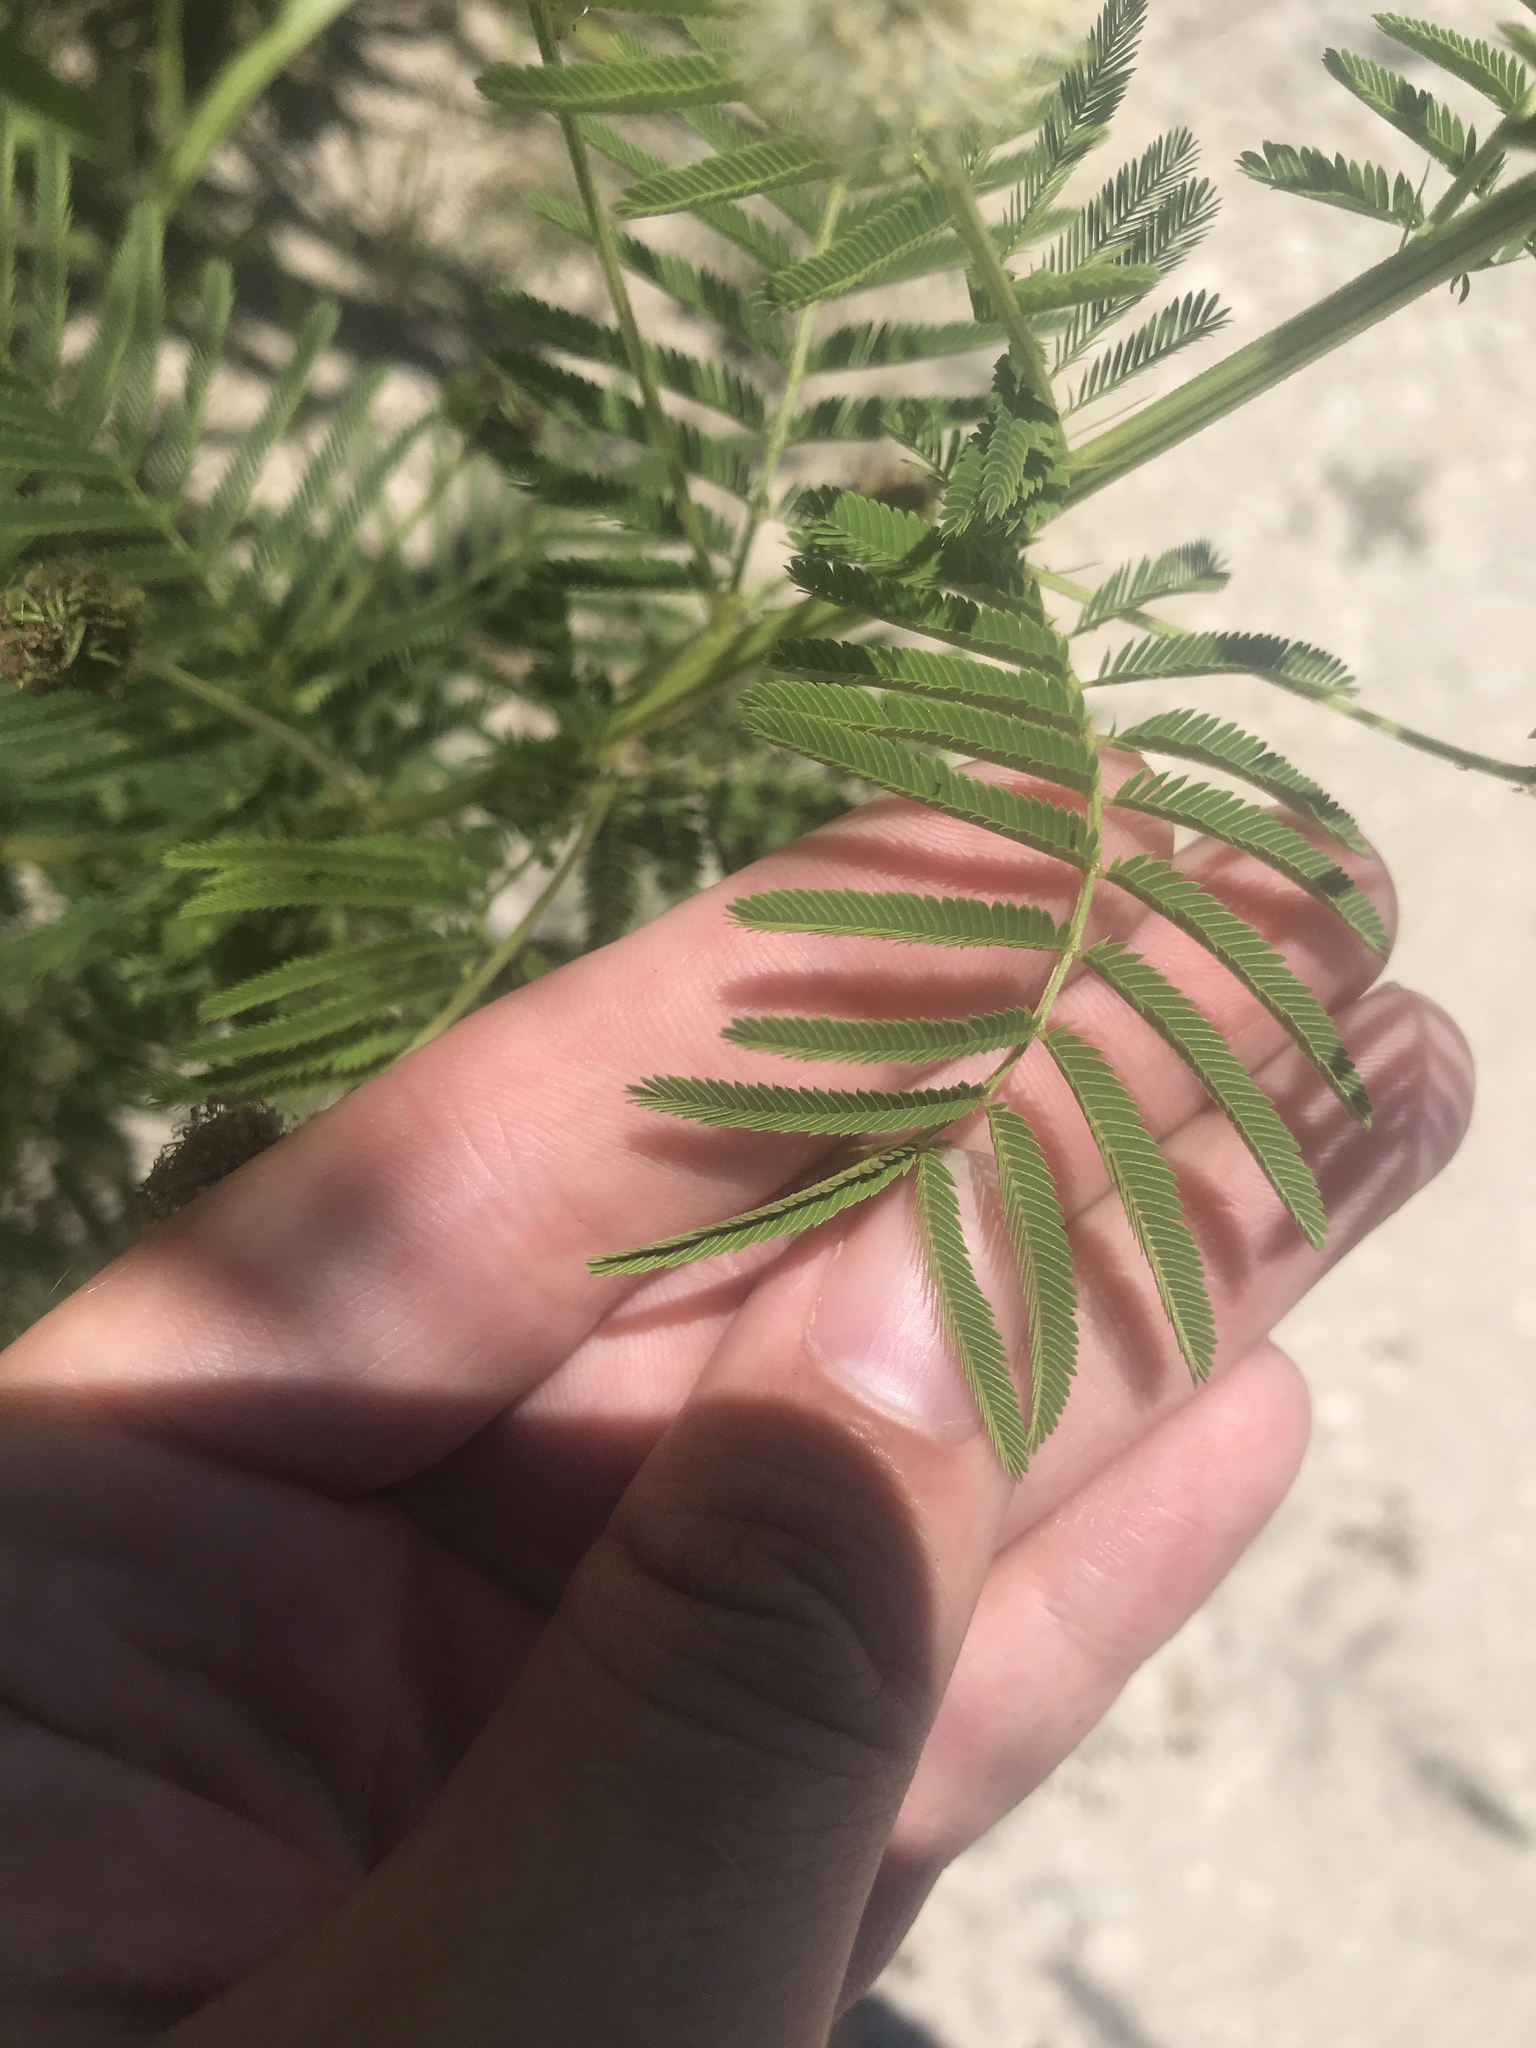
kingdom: Plantae
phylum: Tracheophyta
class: Magnoliopsida
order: Fabales
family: Fabaceae
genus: Desmanthus
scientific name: Desmanthus illinoensis
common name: Illinois bundle-flower
